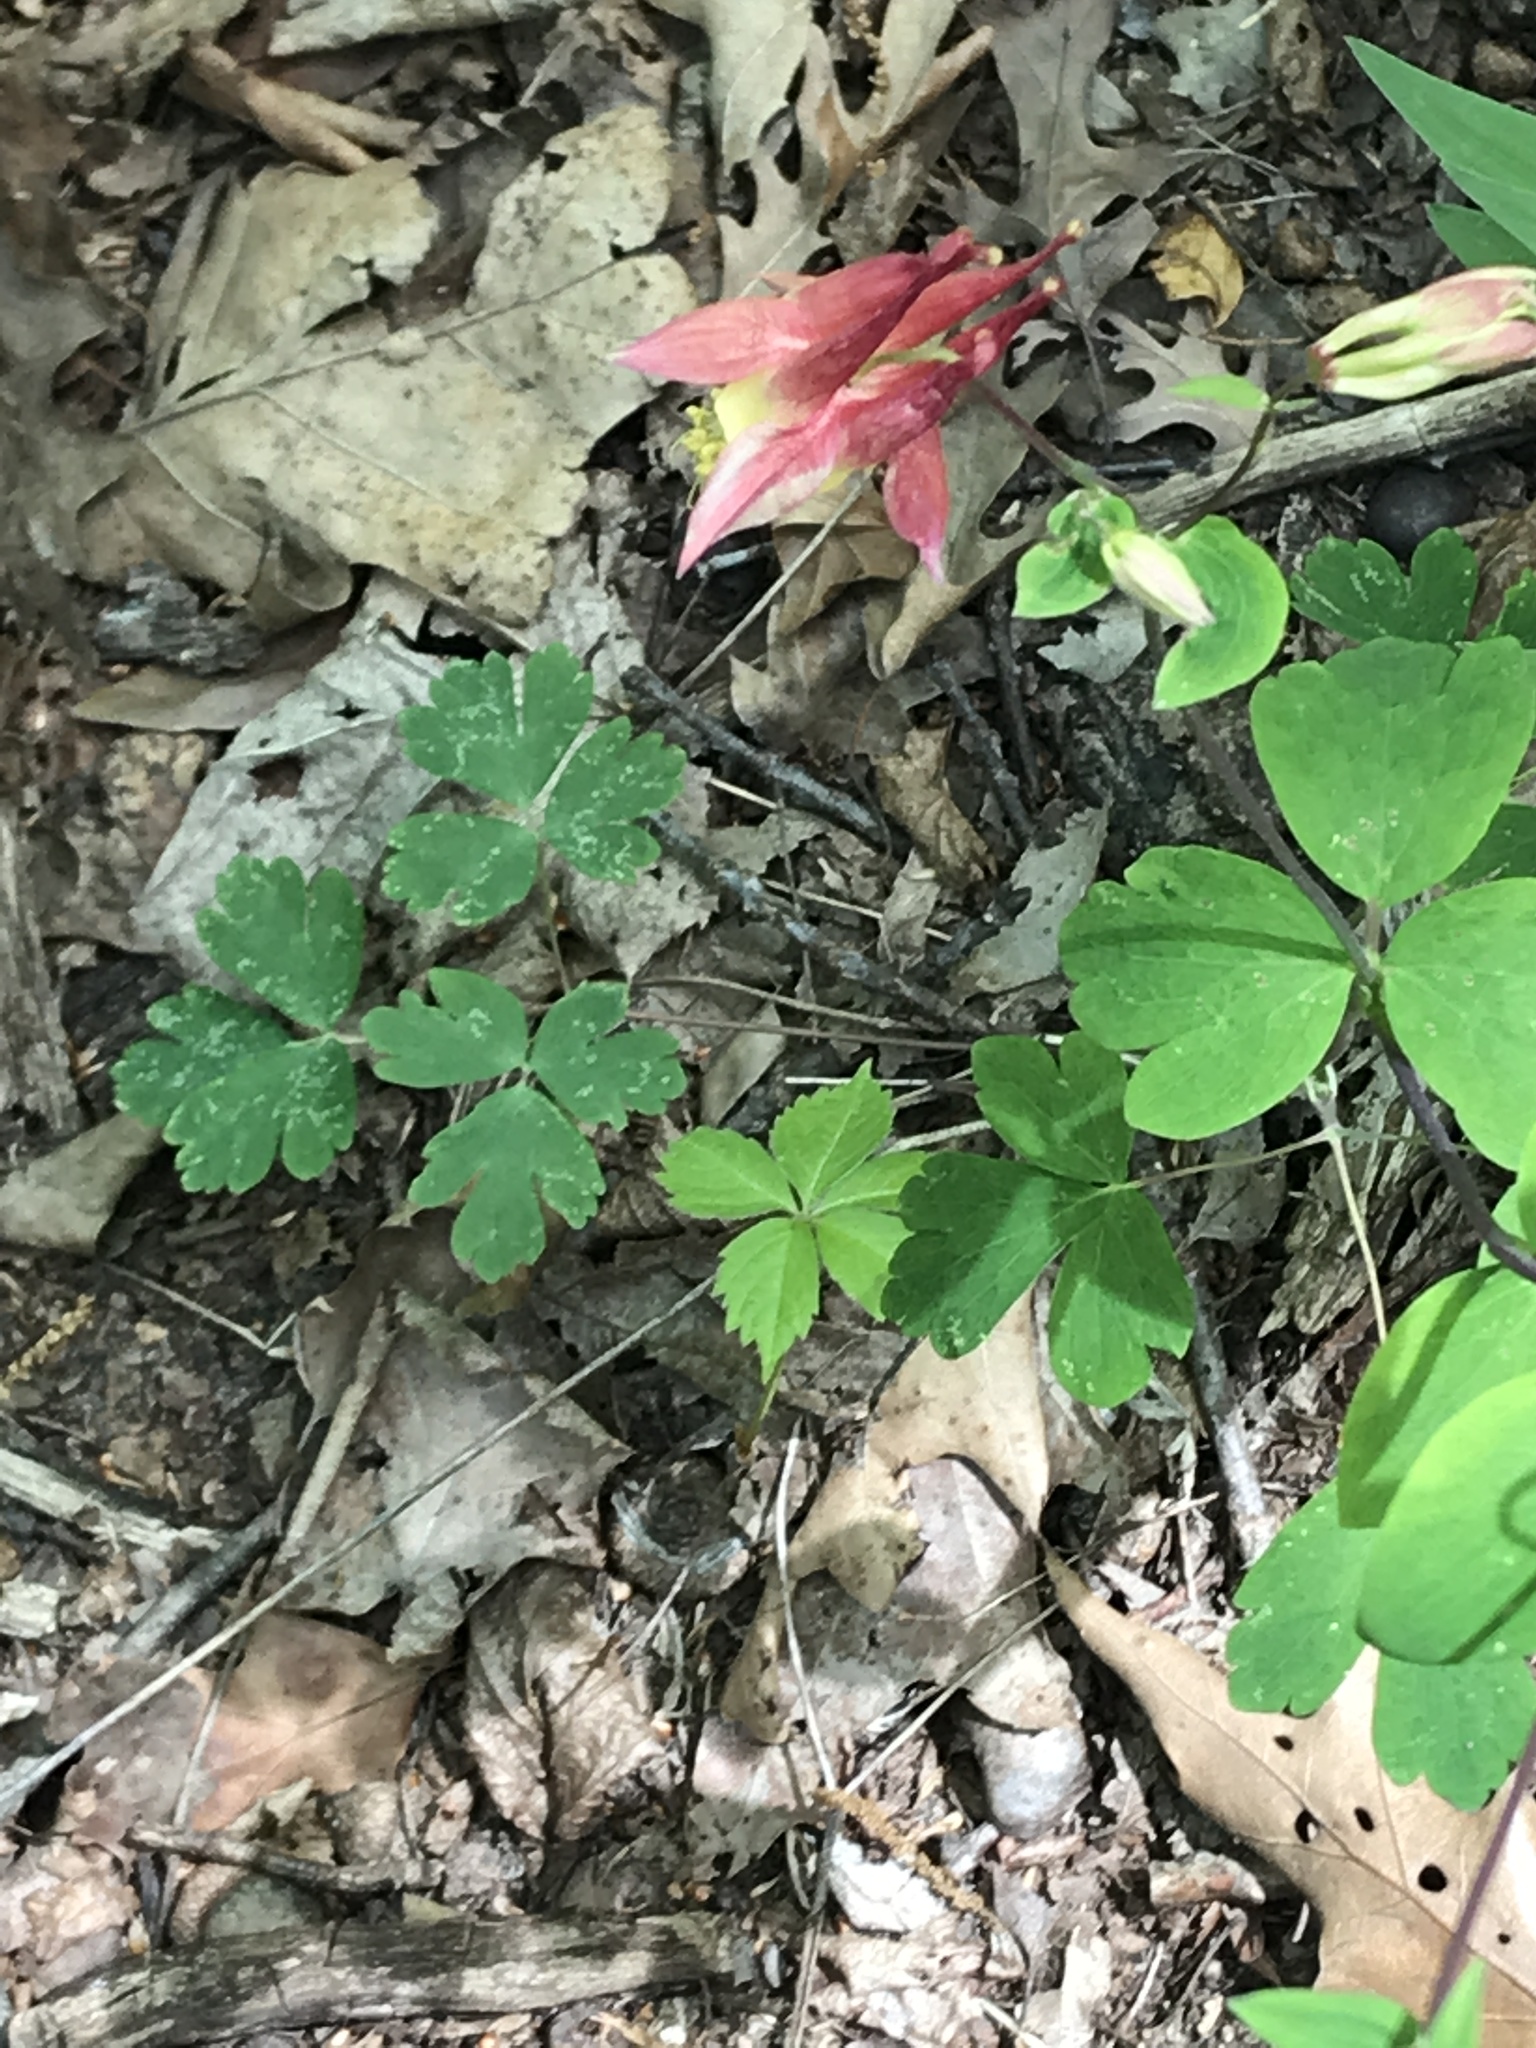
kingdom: Plantae
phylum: Tracheophyta
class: Magnoliopsida
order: Ranunculales
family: Ranunculaceae
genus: Aquilegia
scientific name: Aquilegia canadensis
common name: American columbine
